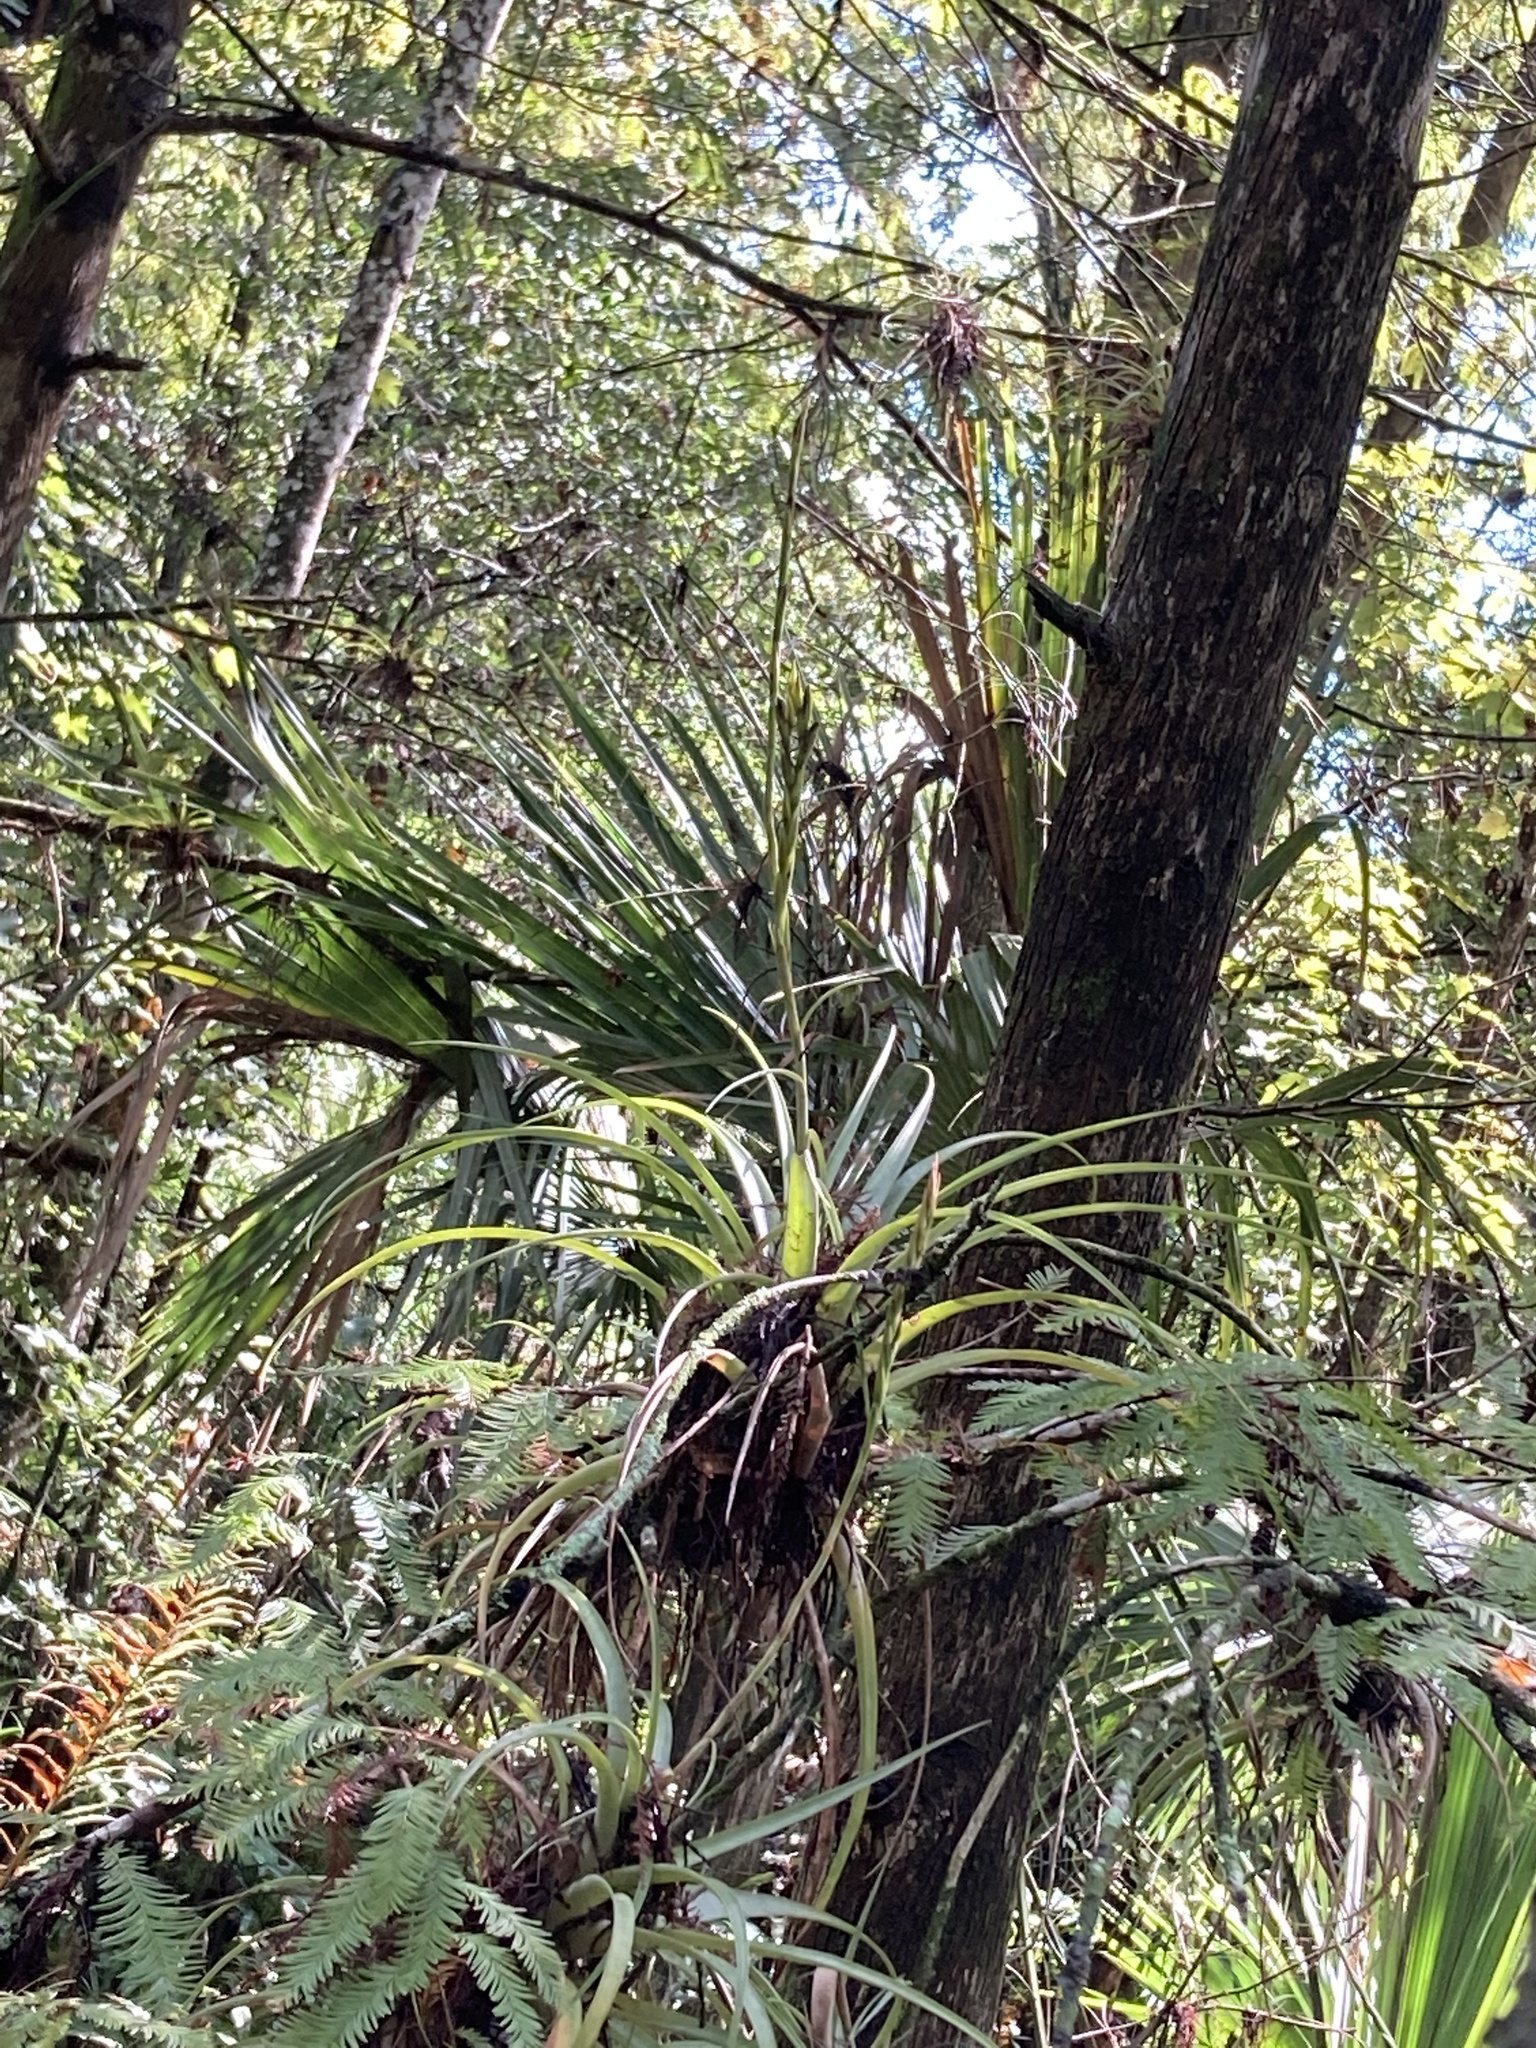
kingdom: Plantae
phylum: Tracheophyta
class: Liliopsida
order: Poales
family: Bromeliaceae
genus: Tillandsia
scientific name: Tillandsia utriculata
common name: Wild pine
